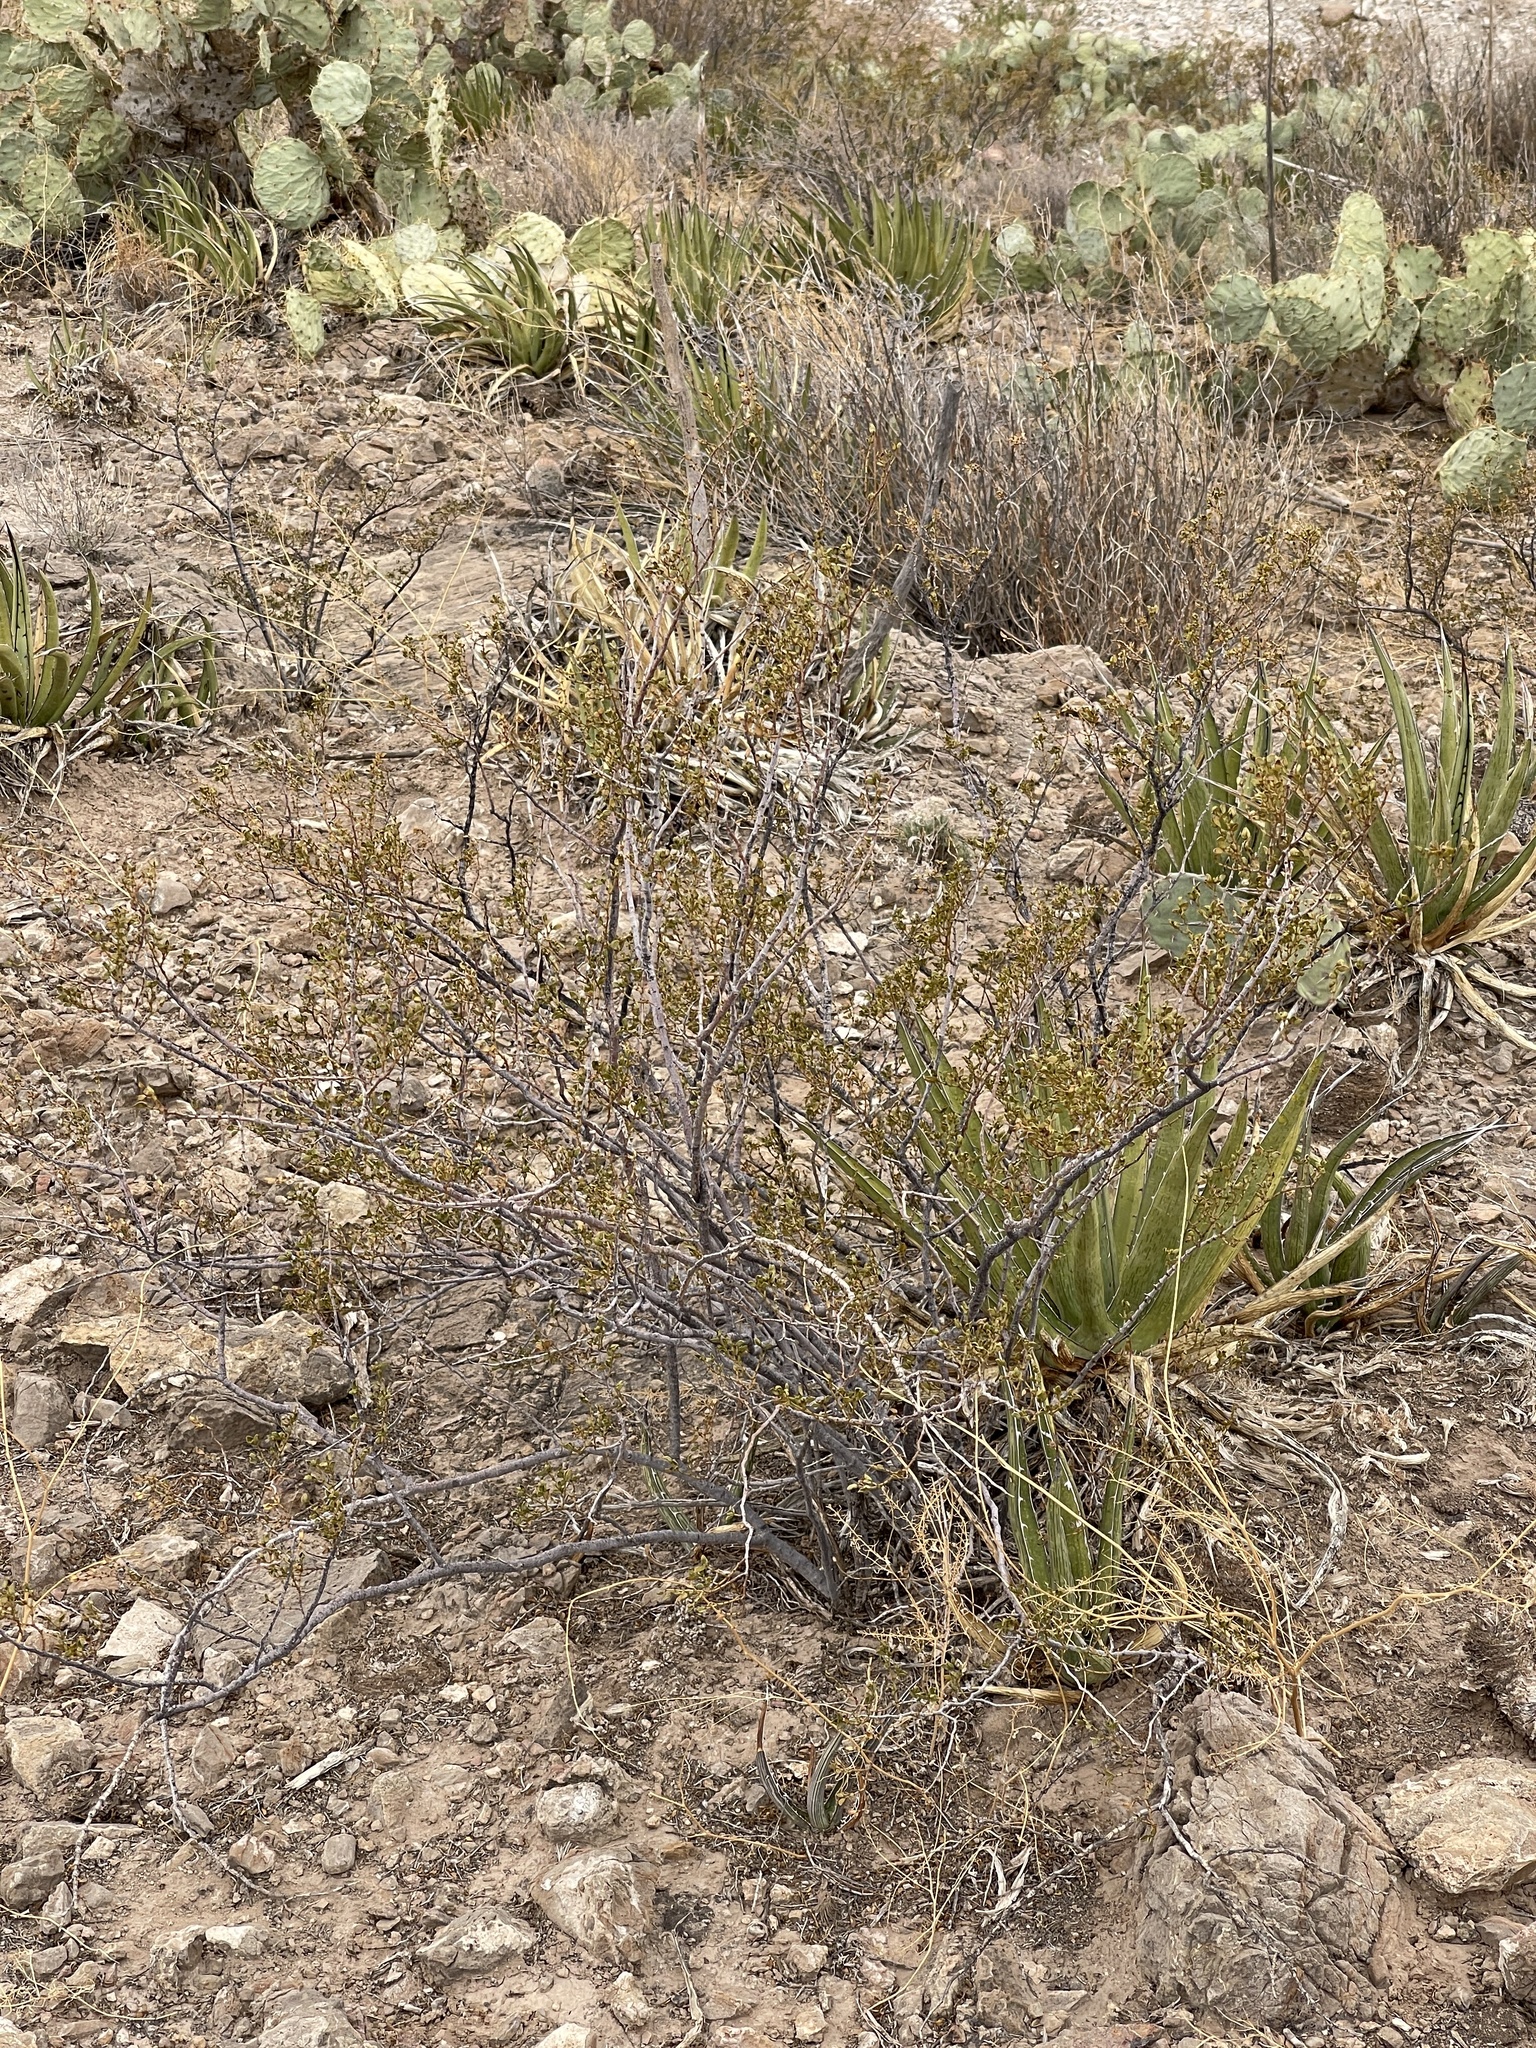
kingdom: Plantae
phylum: Tracheophyta
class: Magnoliopsida
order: Zygophyllales
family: Zygophyllaceae
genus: Larrea
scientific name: Larrea tridentata
